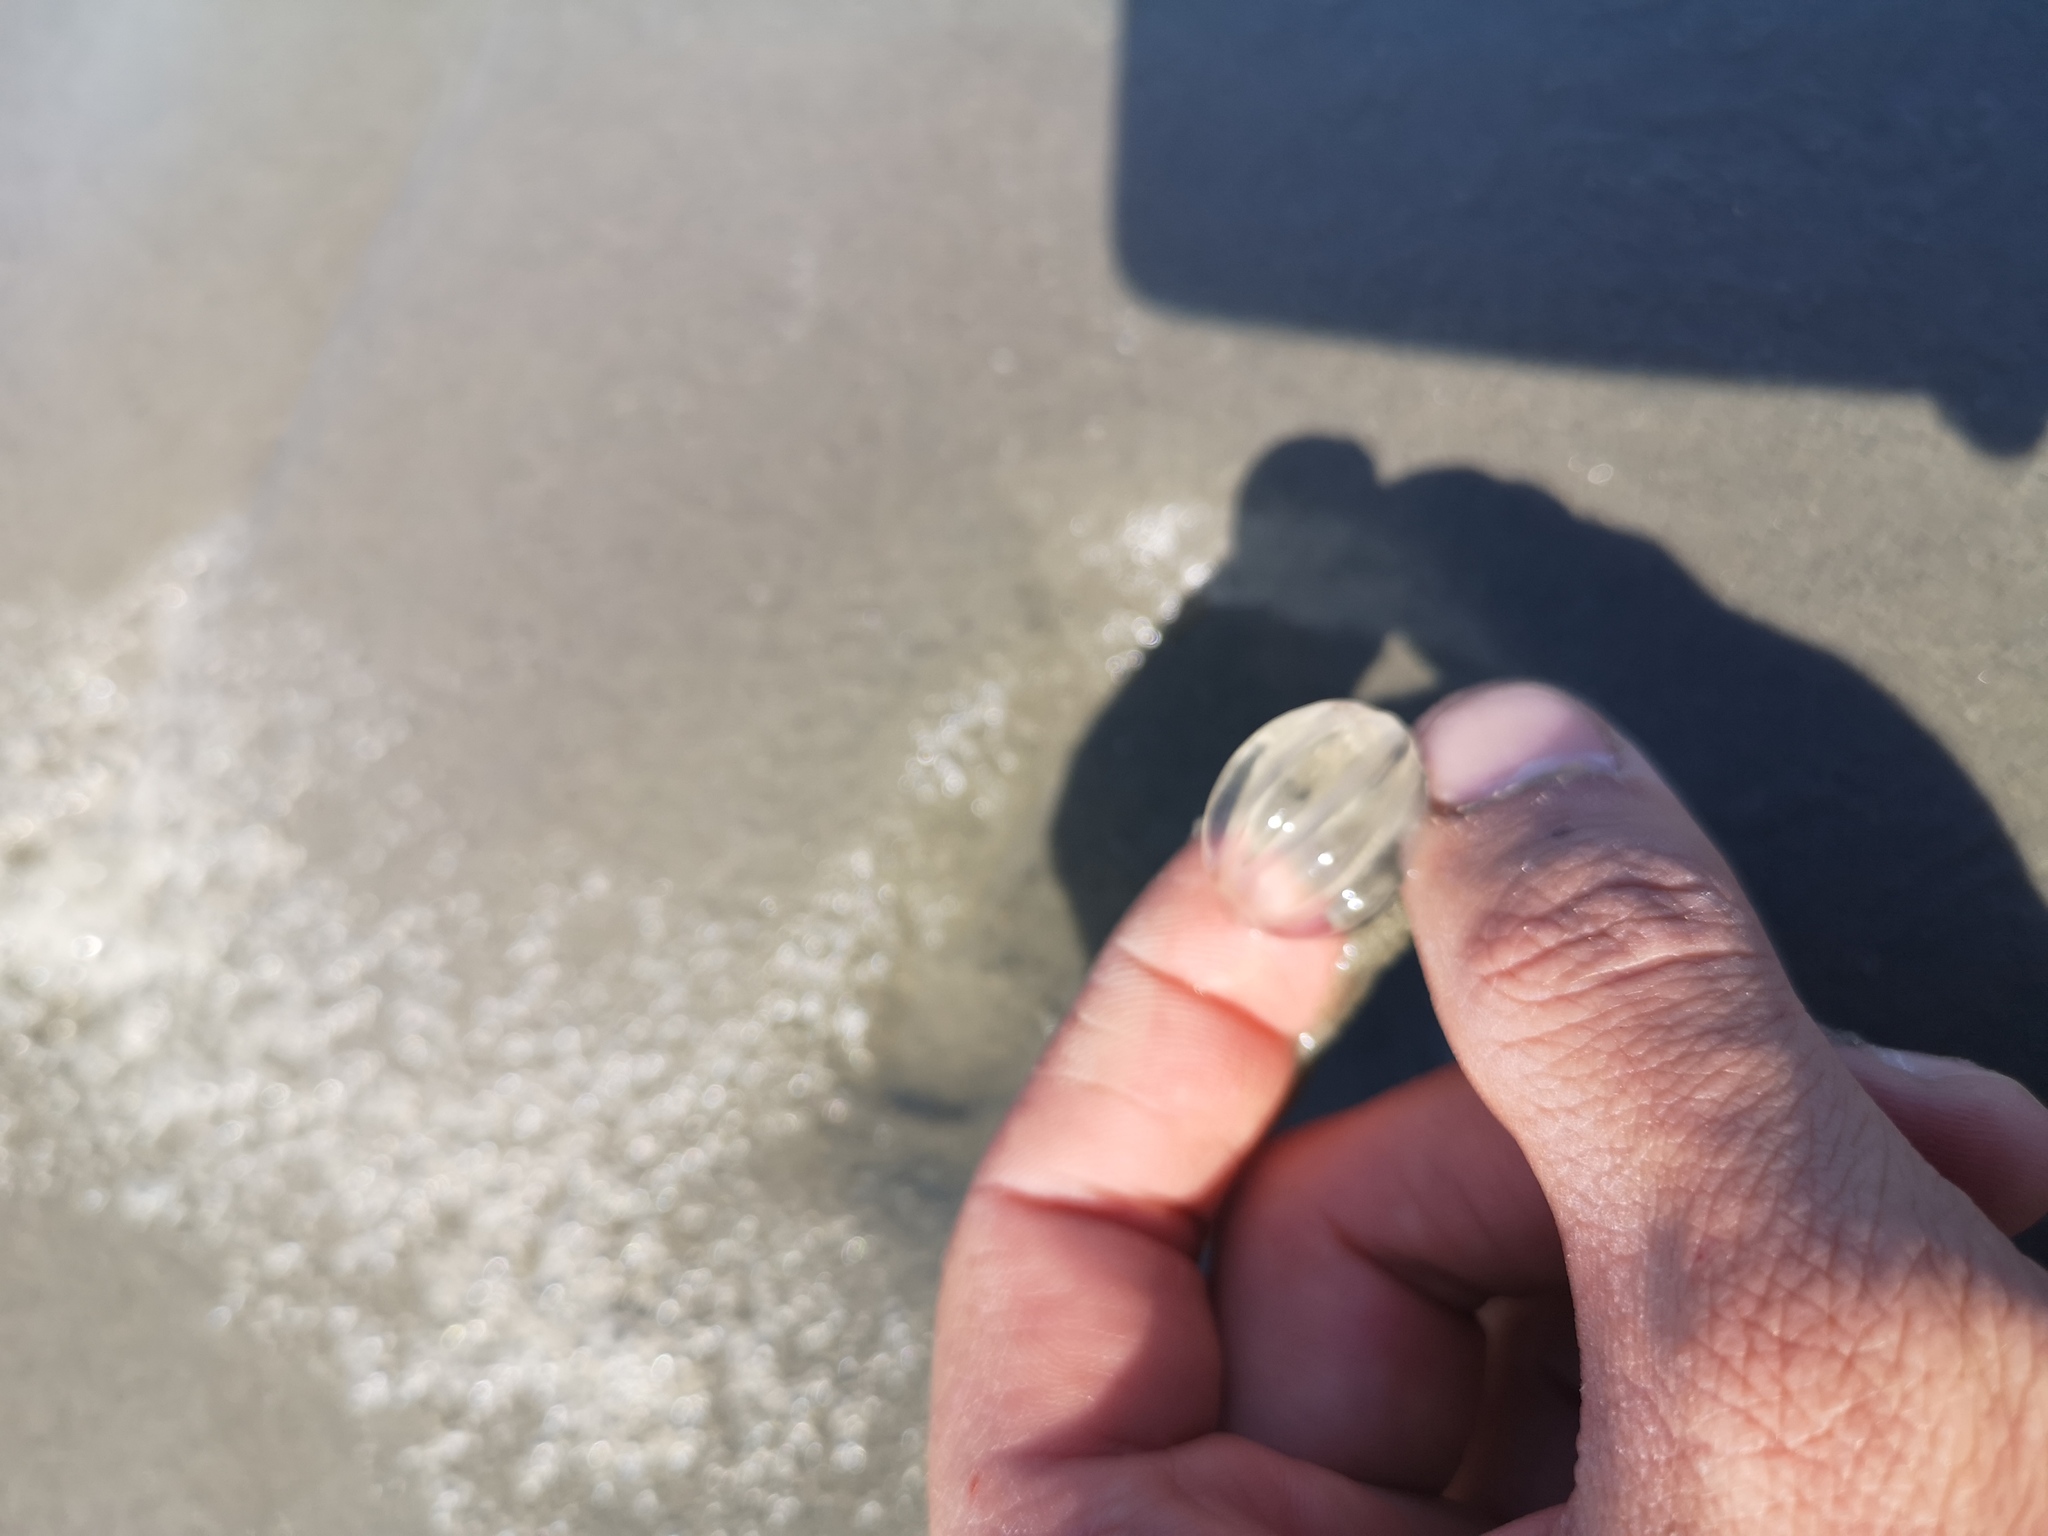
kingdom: Animalia
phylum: Ctenophora
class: Tentaculata
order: Cydippida
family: Pleurobrachiidae
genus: Pleurobrachia
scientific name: Pleurobrachia pileus
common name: Sea gooseberry
